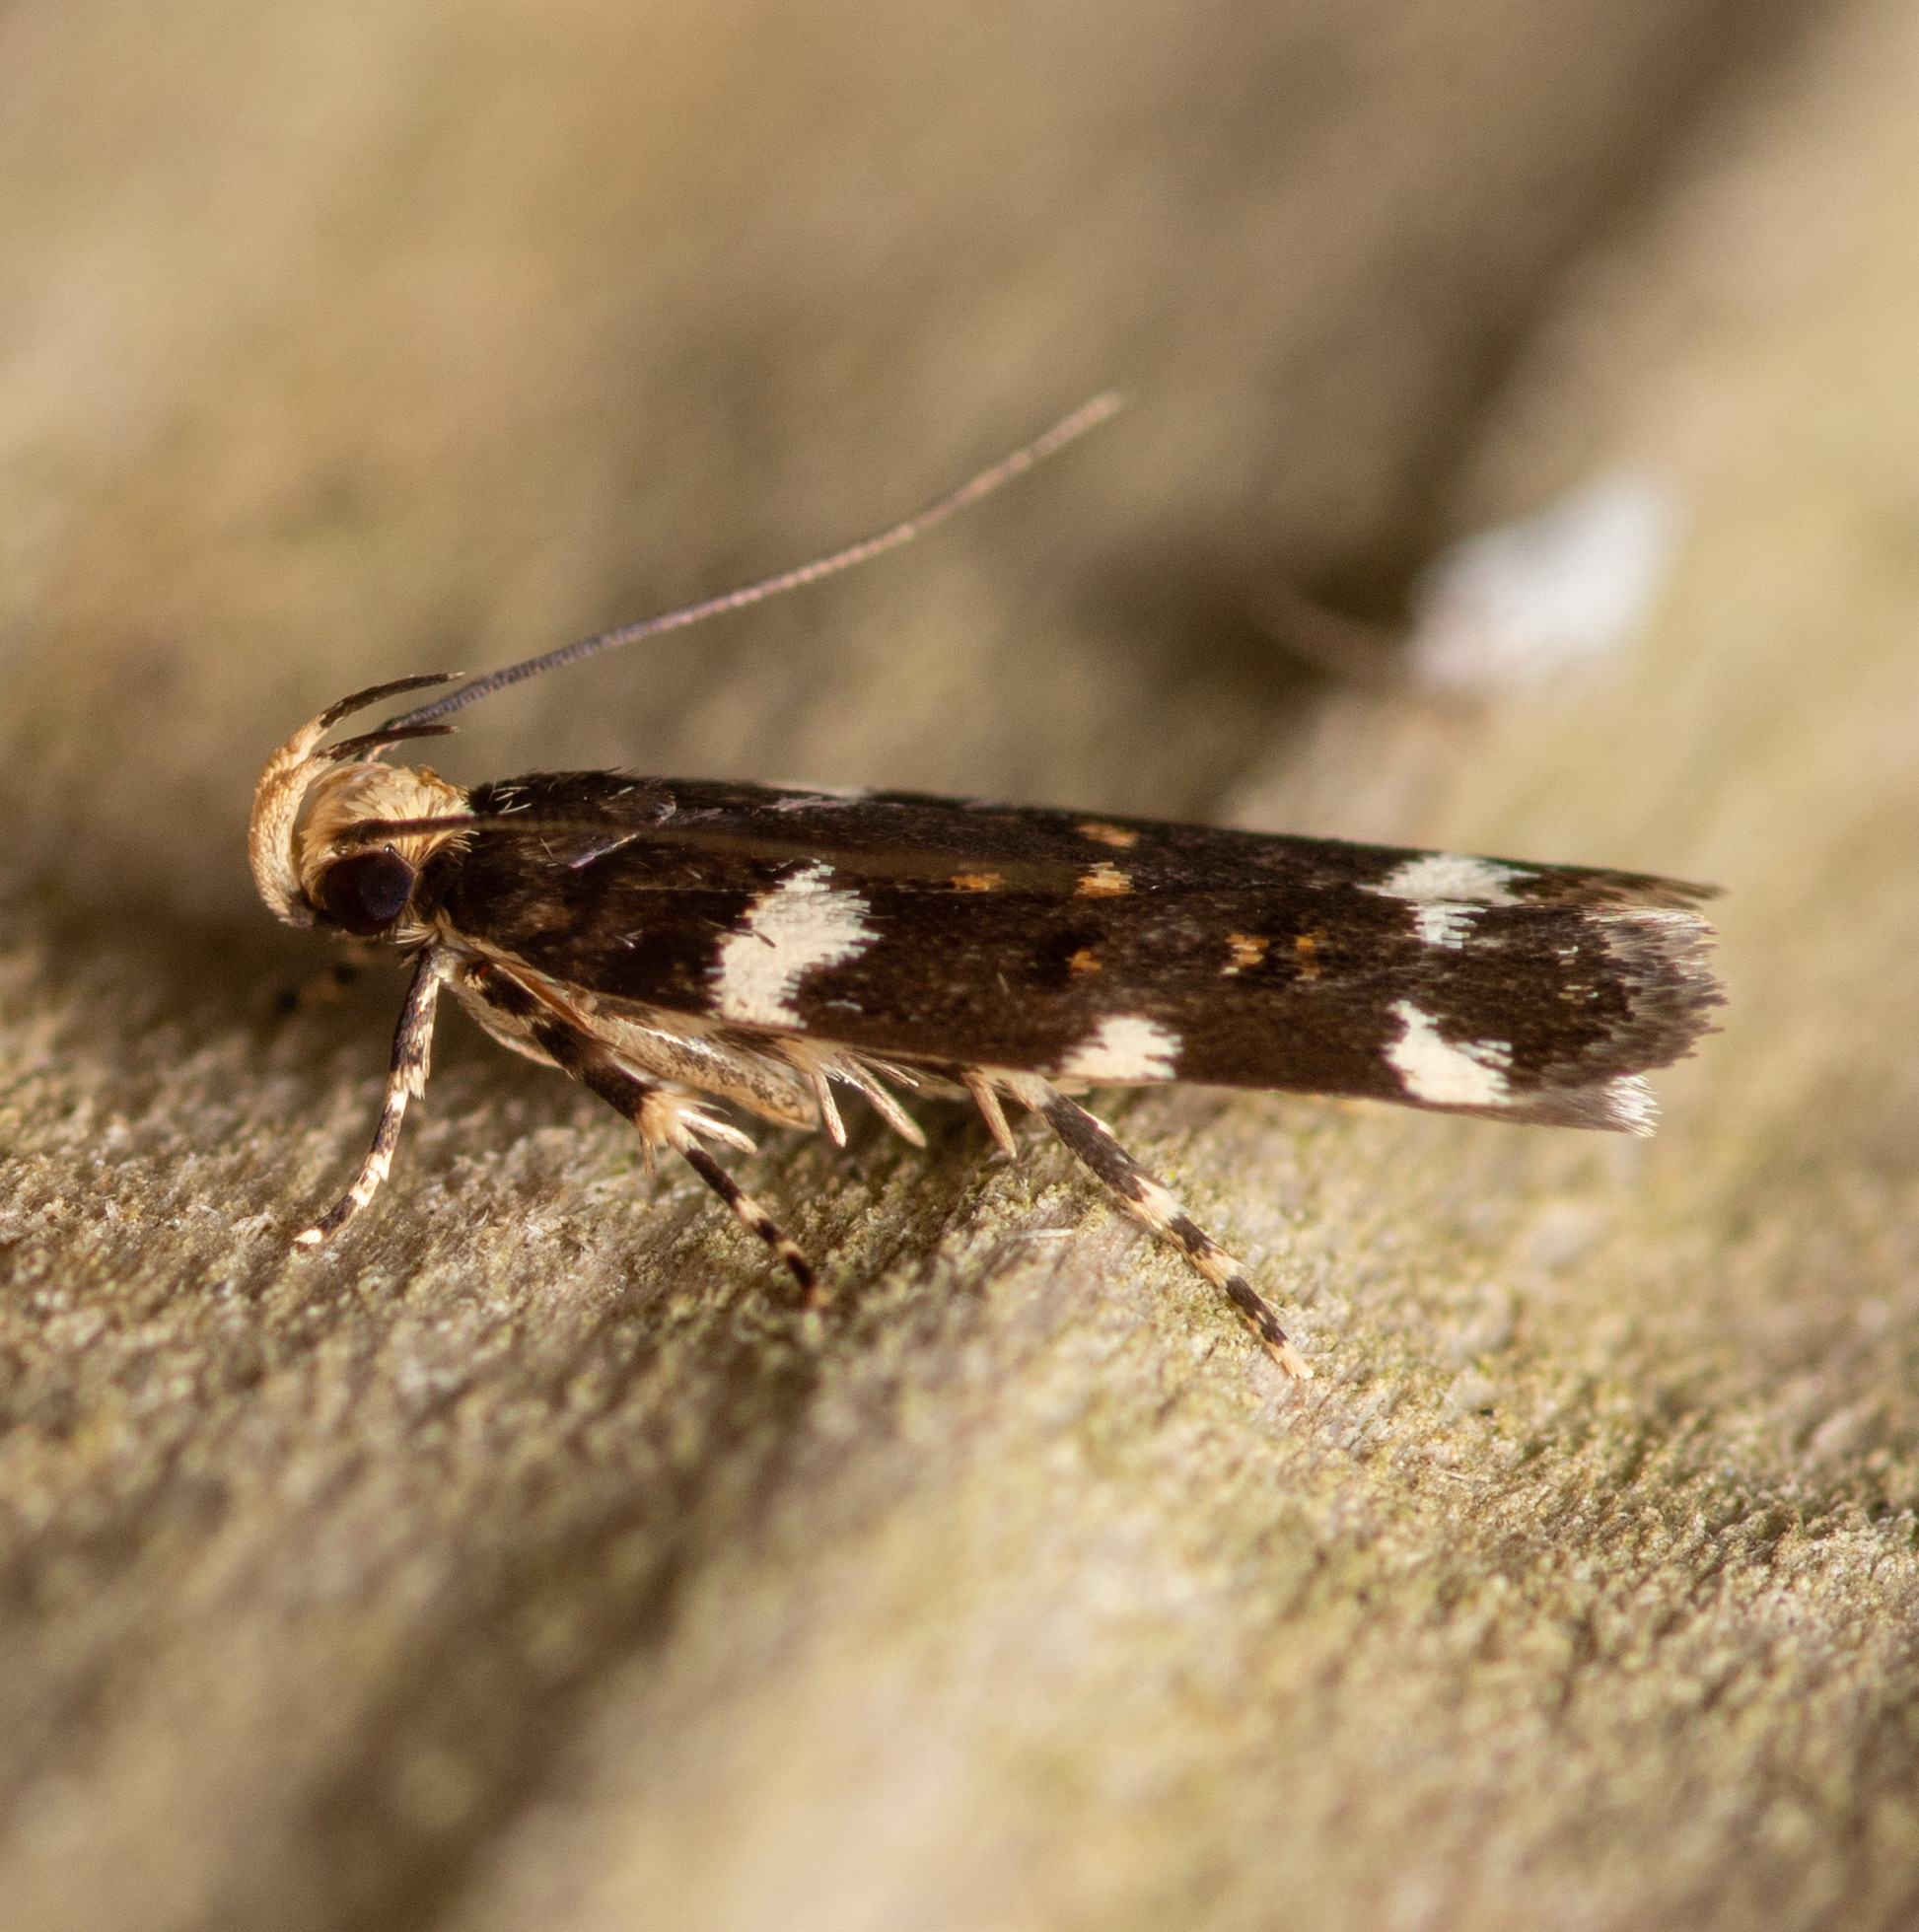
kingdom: Animalia
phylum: Arthropoda
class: Insecta
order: Lepidoptera
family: Gelechiidae
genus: Fascista
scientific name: Fascista cercerisella
